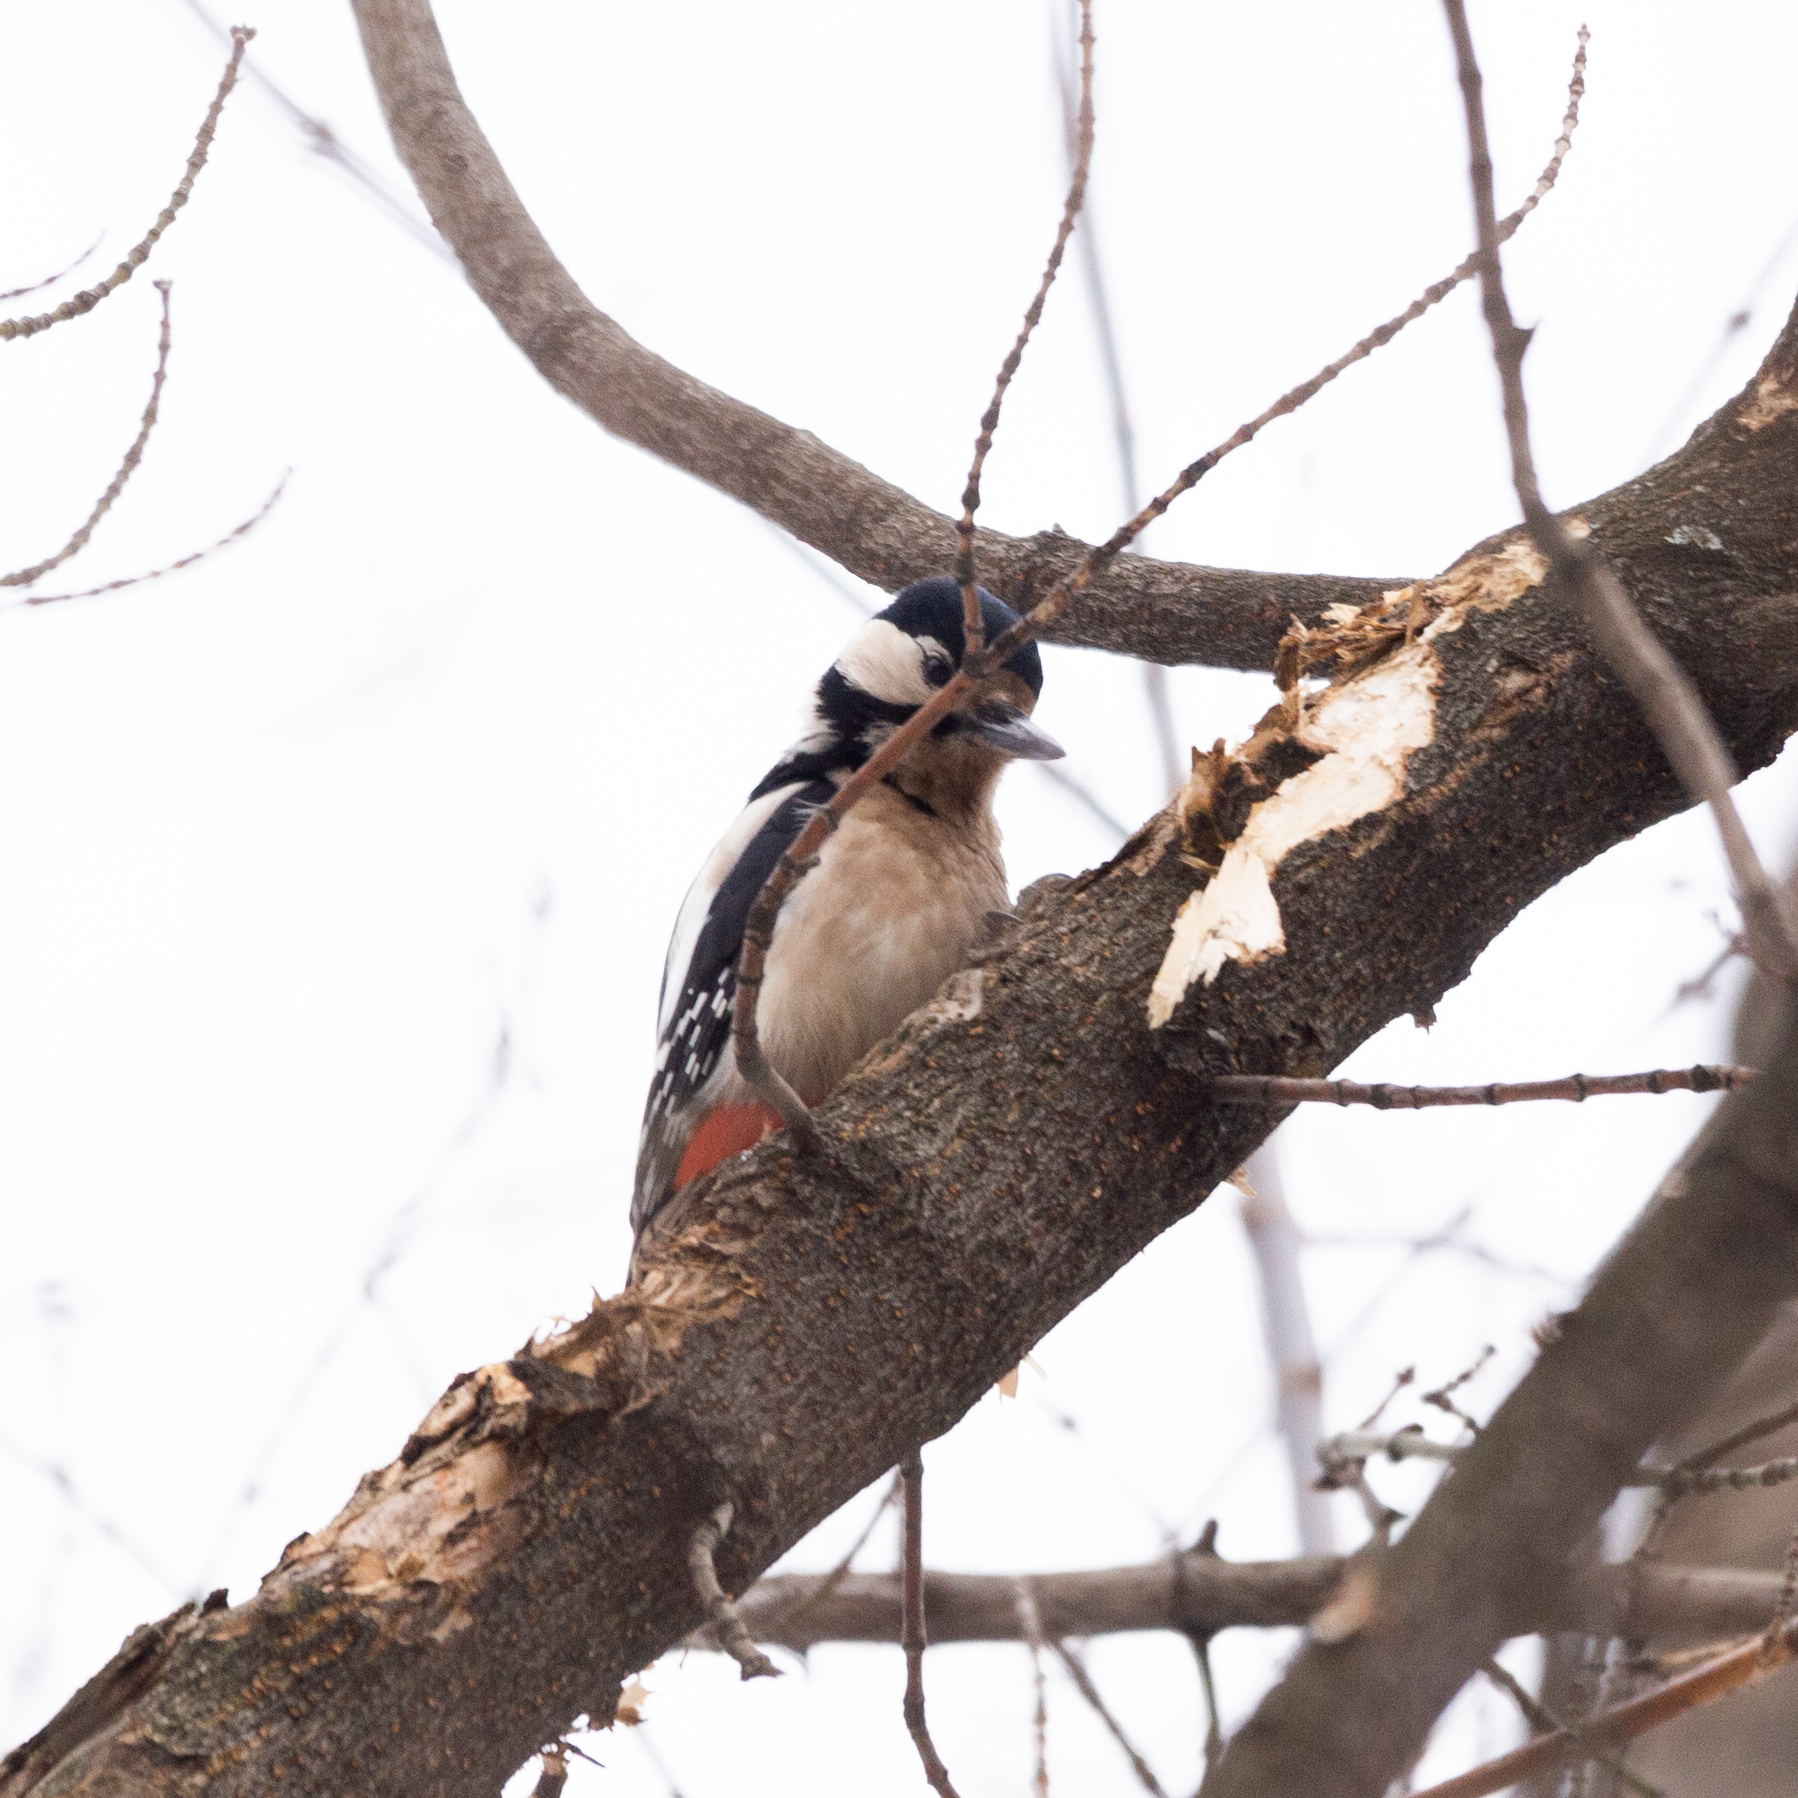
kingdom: Animalia
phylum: Chordata
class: Aves
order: Piciformes
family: Picidae
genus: Dendrocopos
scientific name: Dendrocopos major
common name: Great spotted woodpecker
